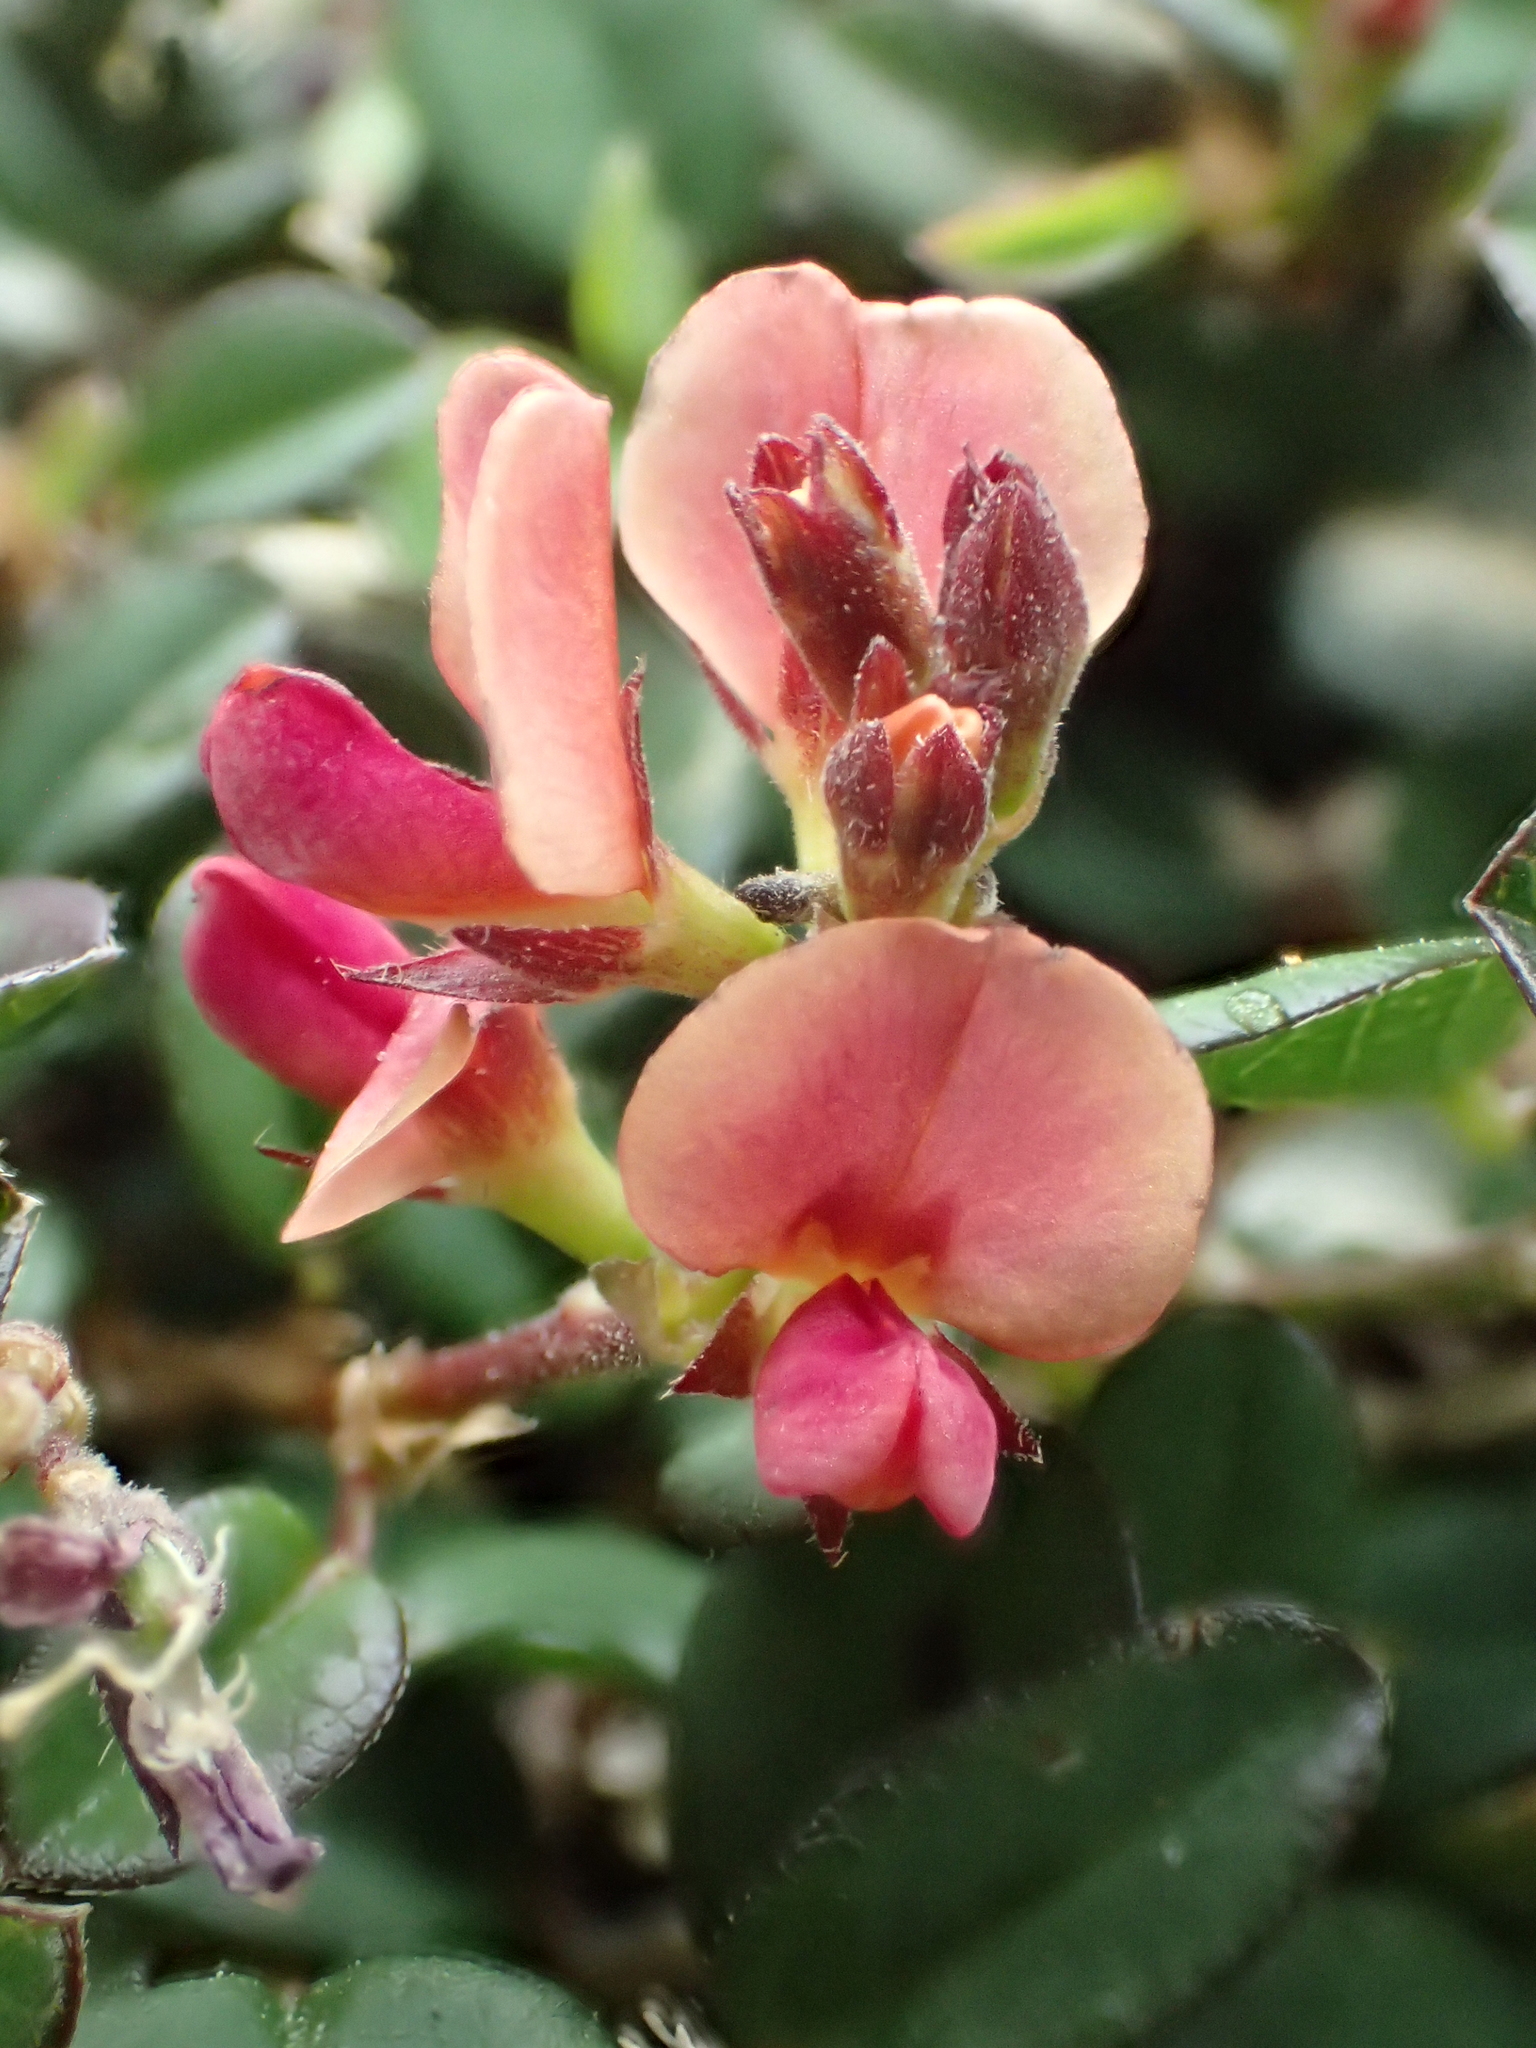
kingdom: Plantae
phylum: Tracheophyta
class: Magnoliopsida
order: Fabales
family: Fabaceae
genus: Alysicarpus
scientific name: Alysicarpus vaginalis
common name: White moneywort
